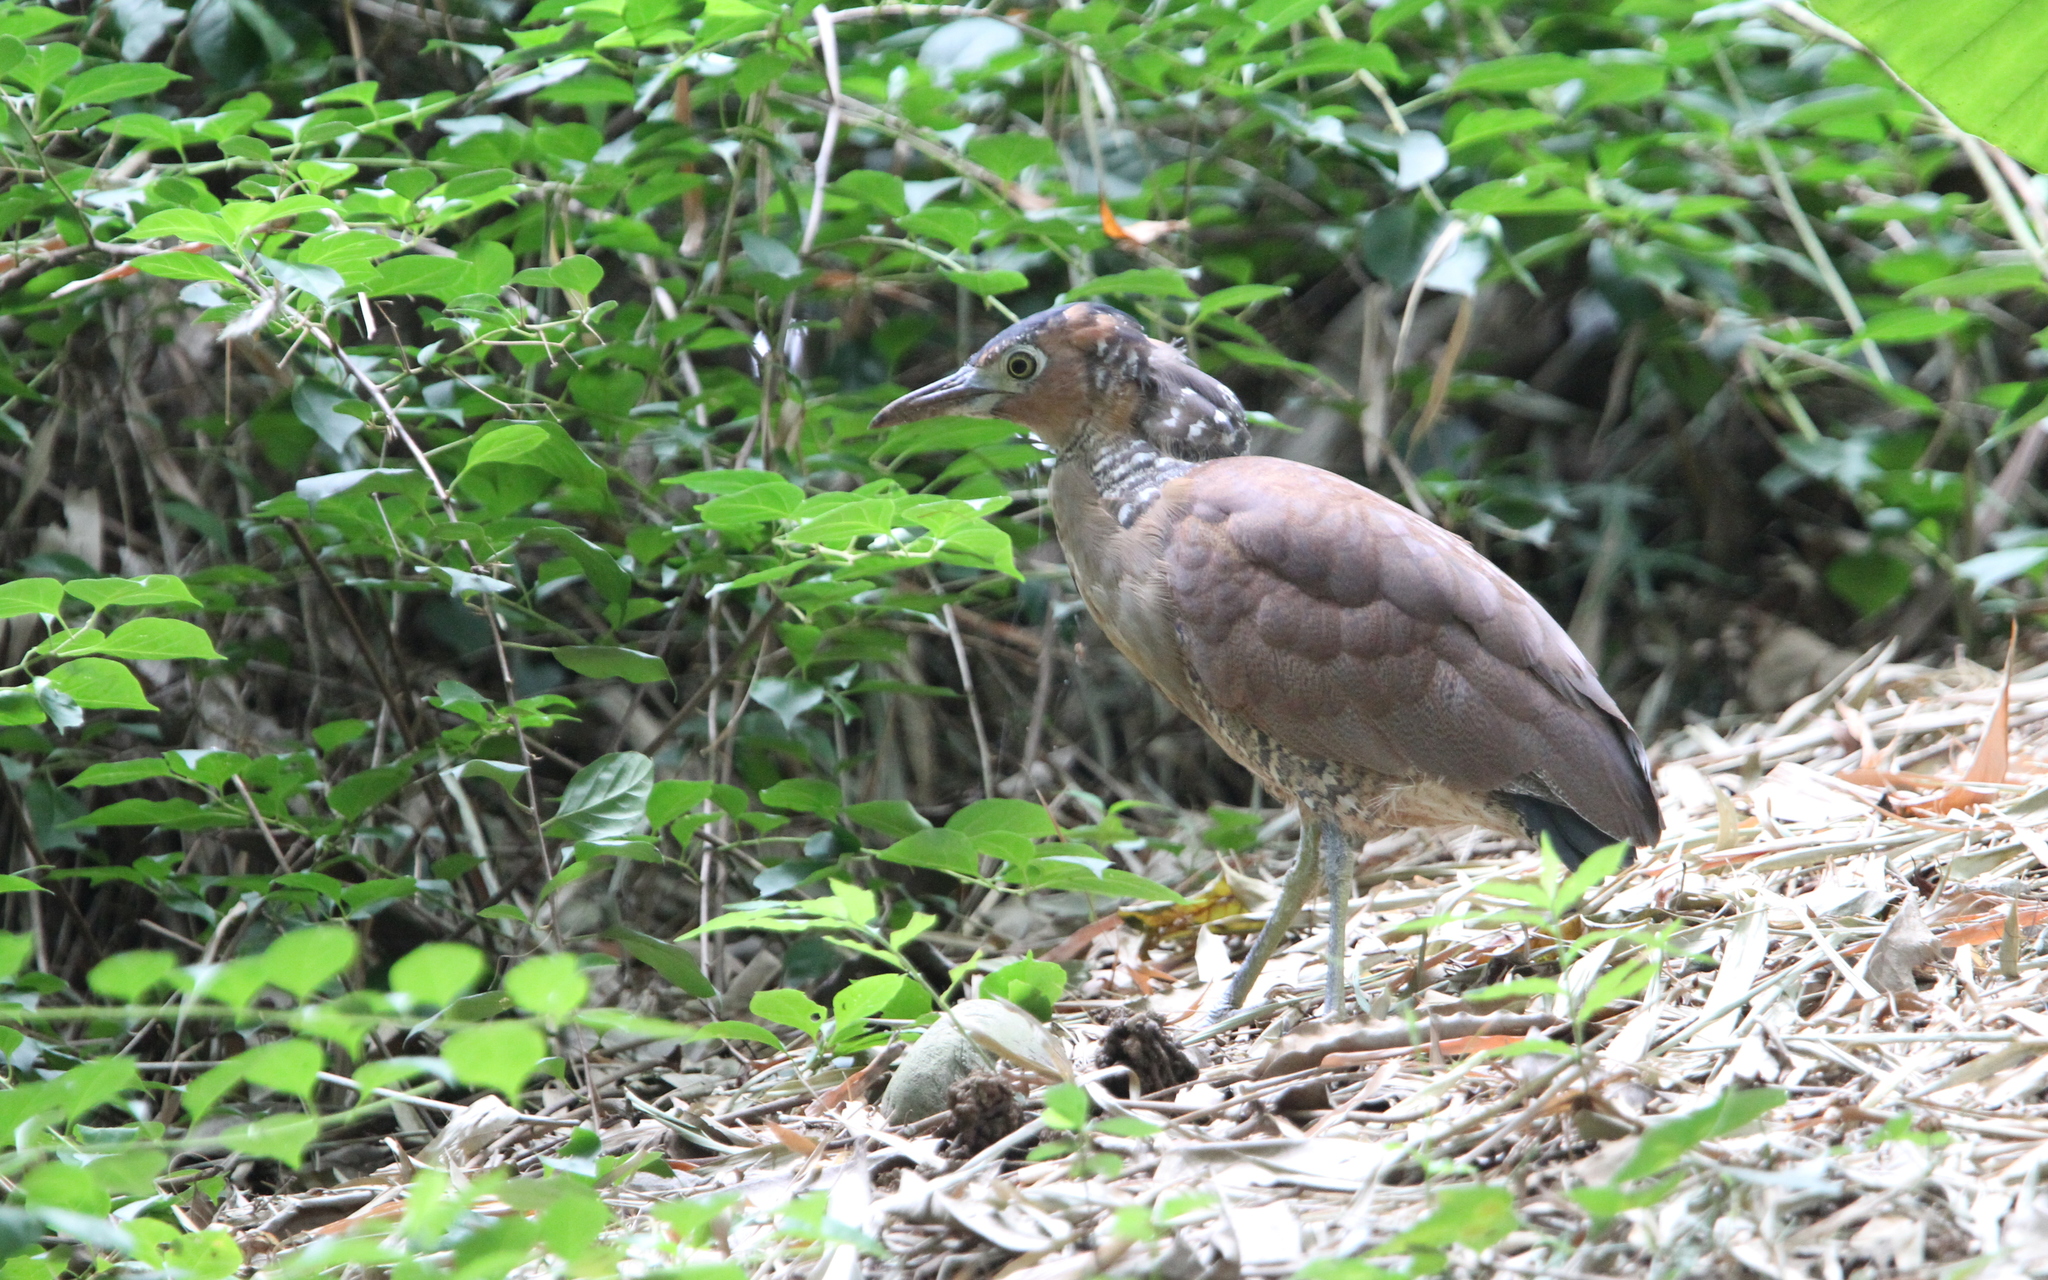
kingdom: Animalia
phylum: Chordata
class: Aves
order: Pelecaniformes
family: Ardeidae
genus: Gorsachius
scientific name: Gorsachius melanolophus
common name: Malayan night heron
